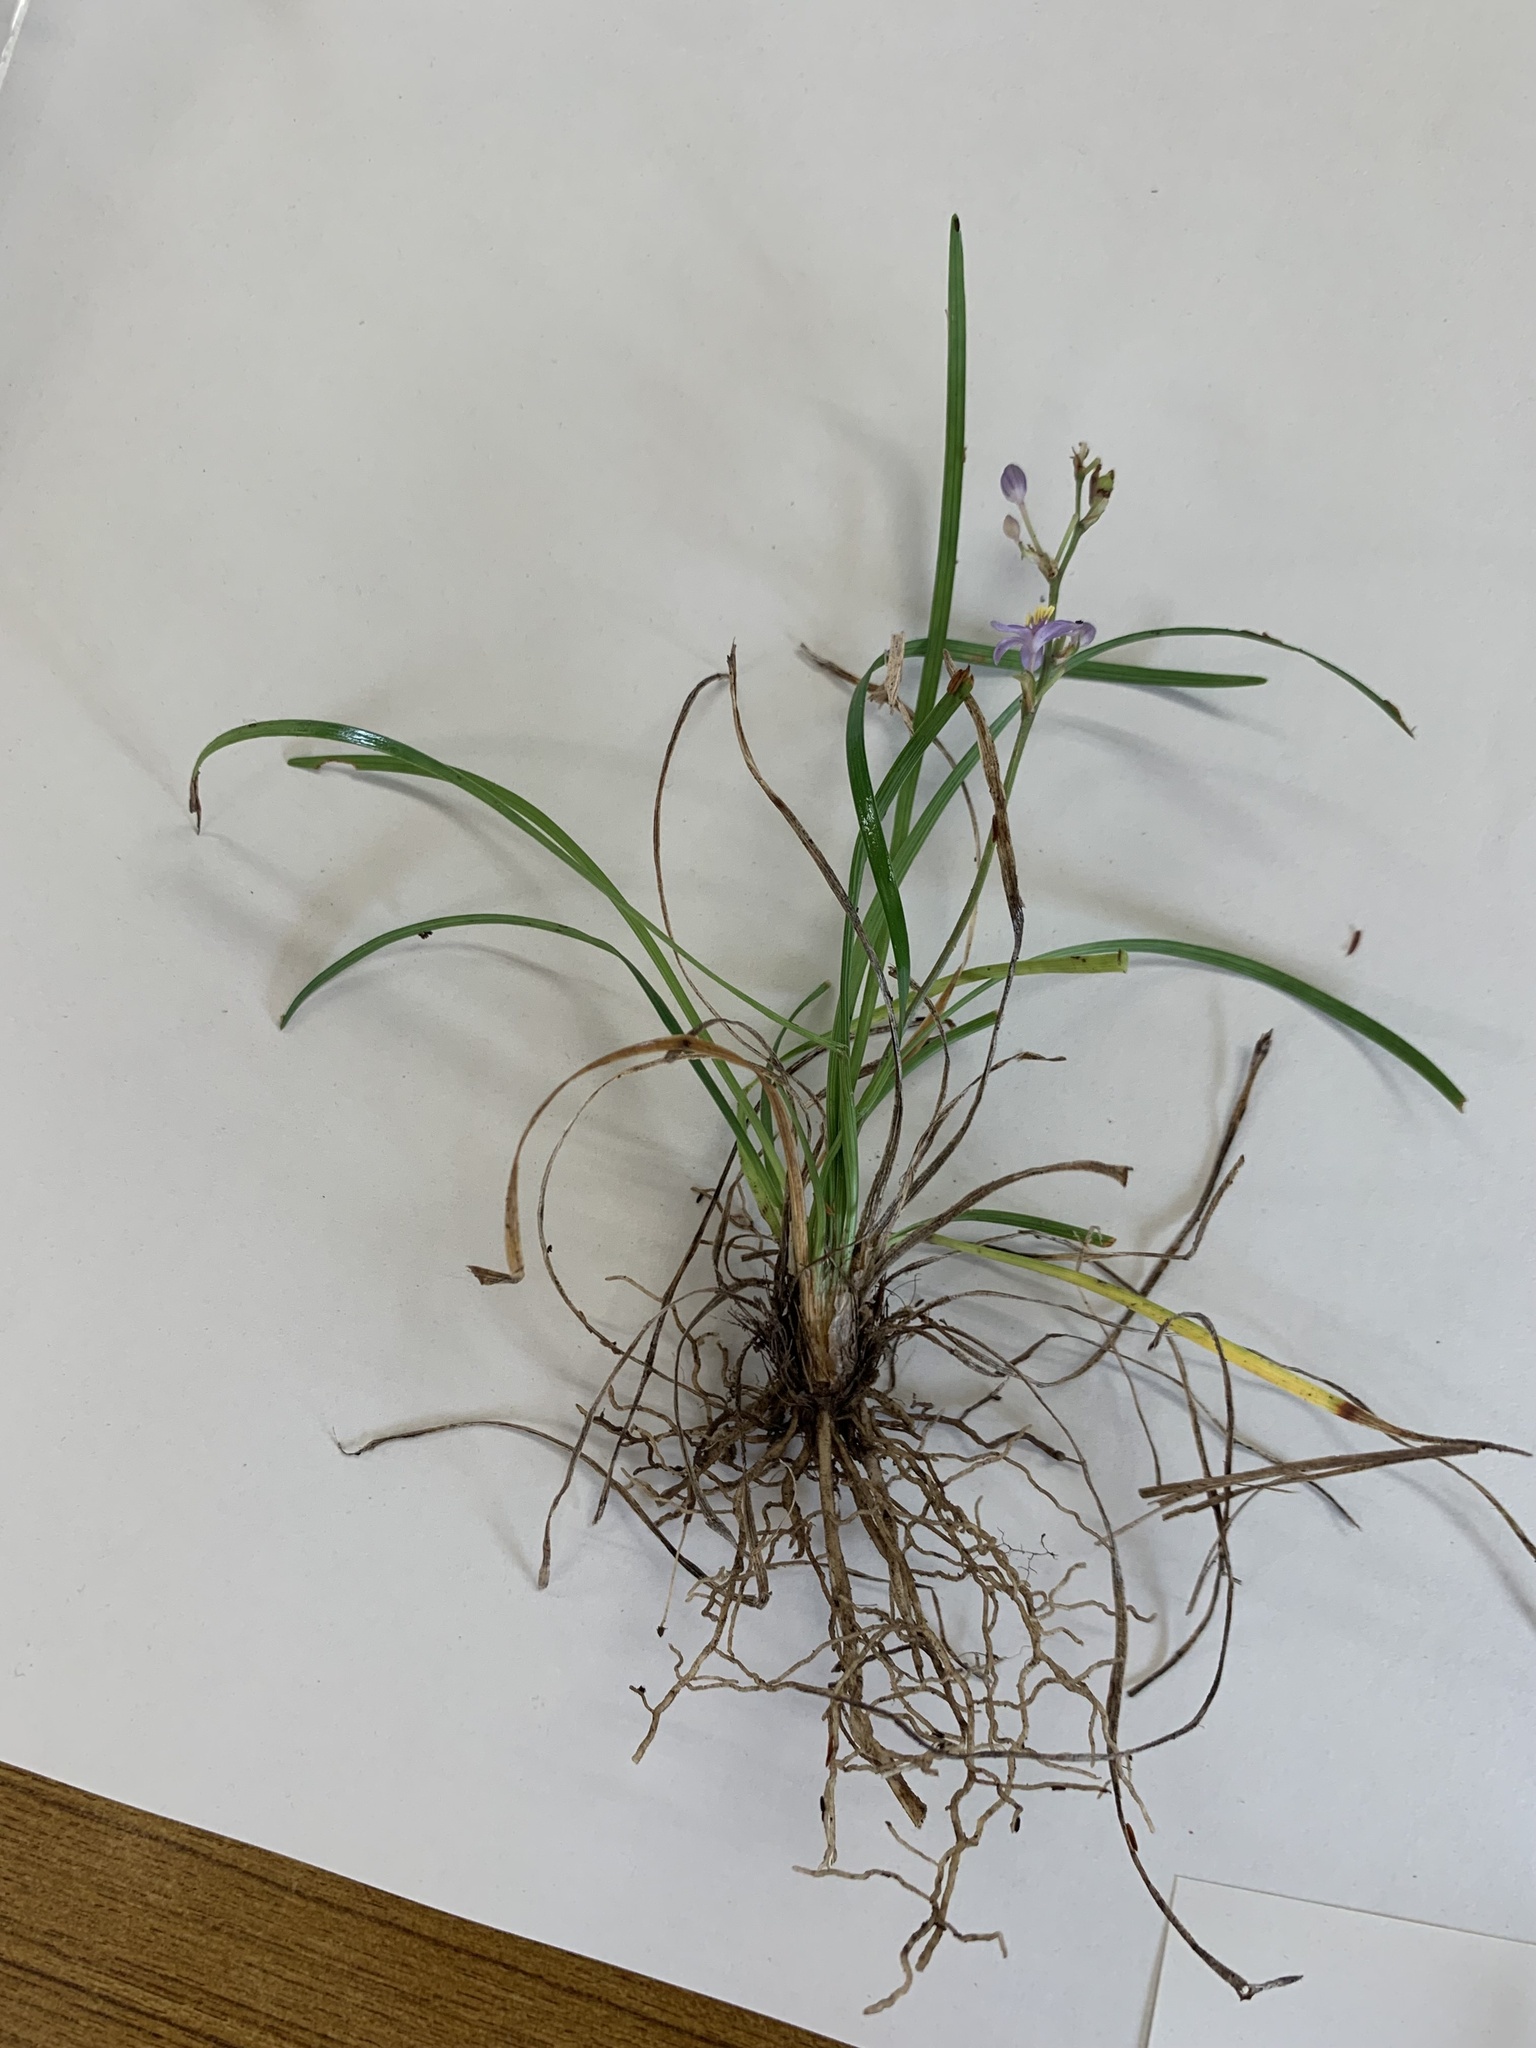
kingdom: Plantae
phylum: Tracheophyta
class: Liliopsida
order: Asparagales
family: Asparagaceae
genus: Liriope
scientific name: Liriope minor
